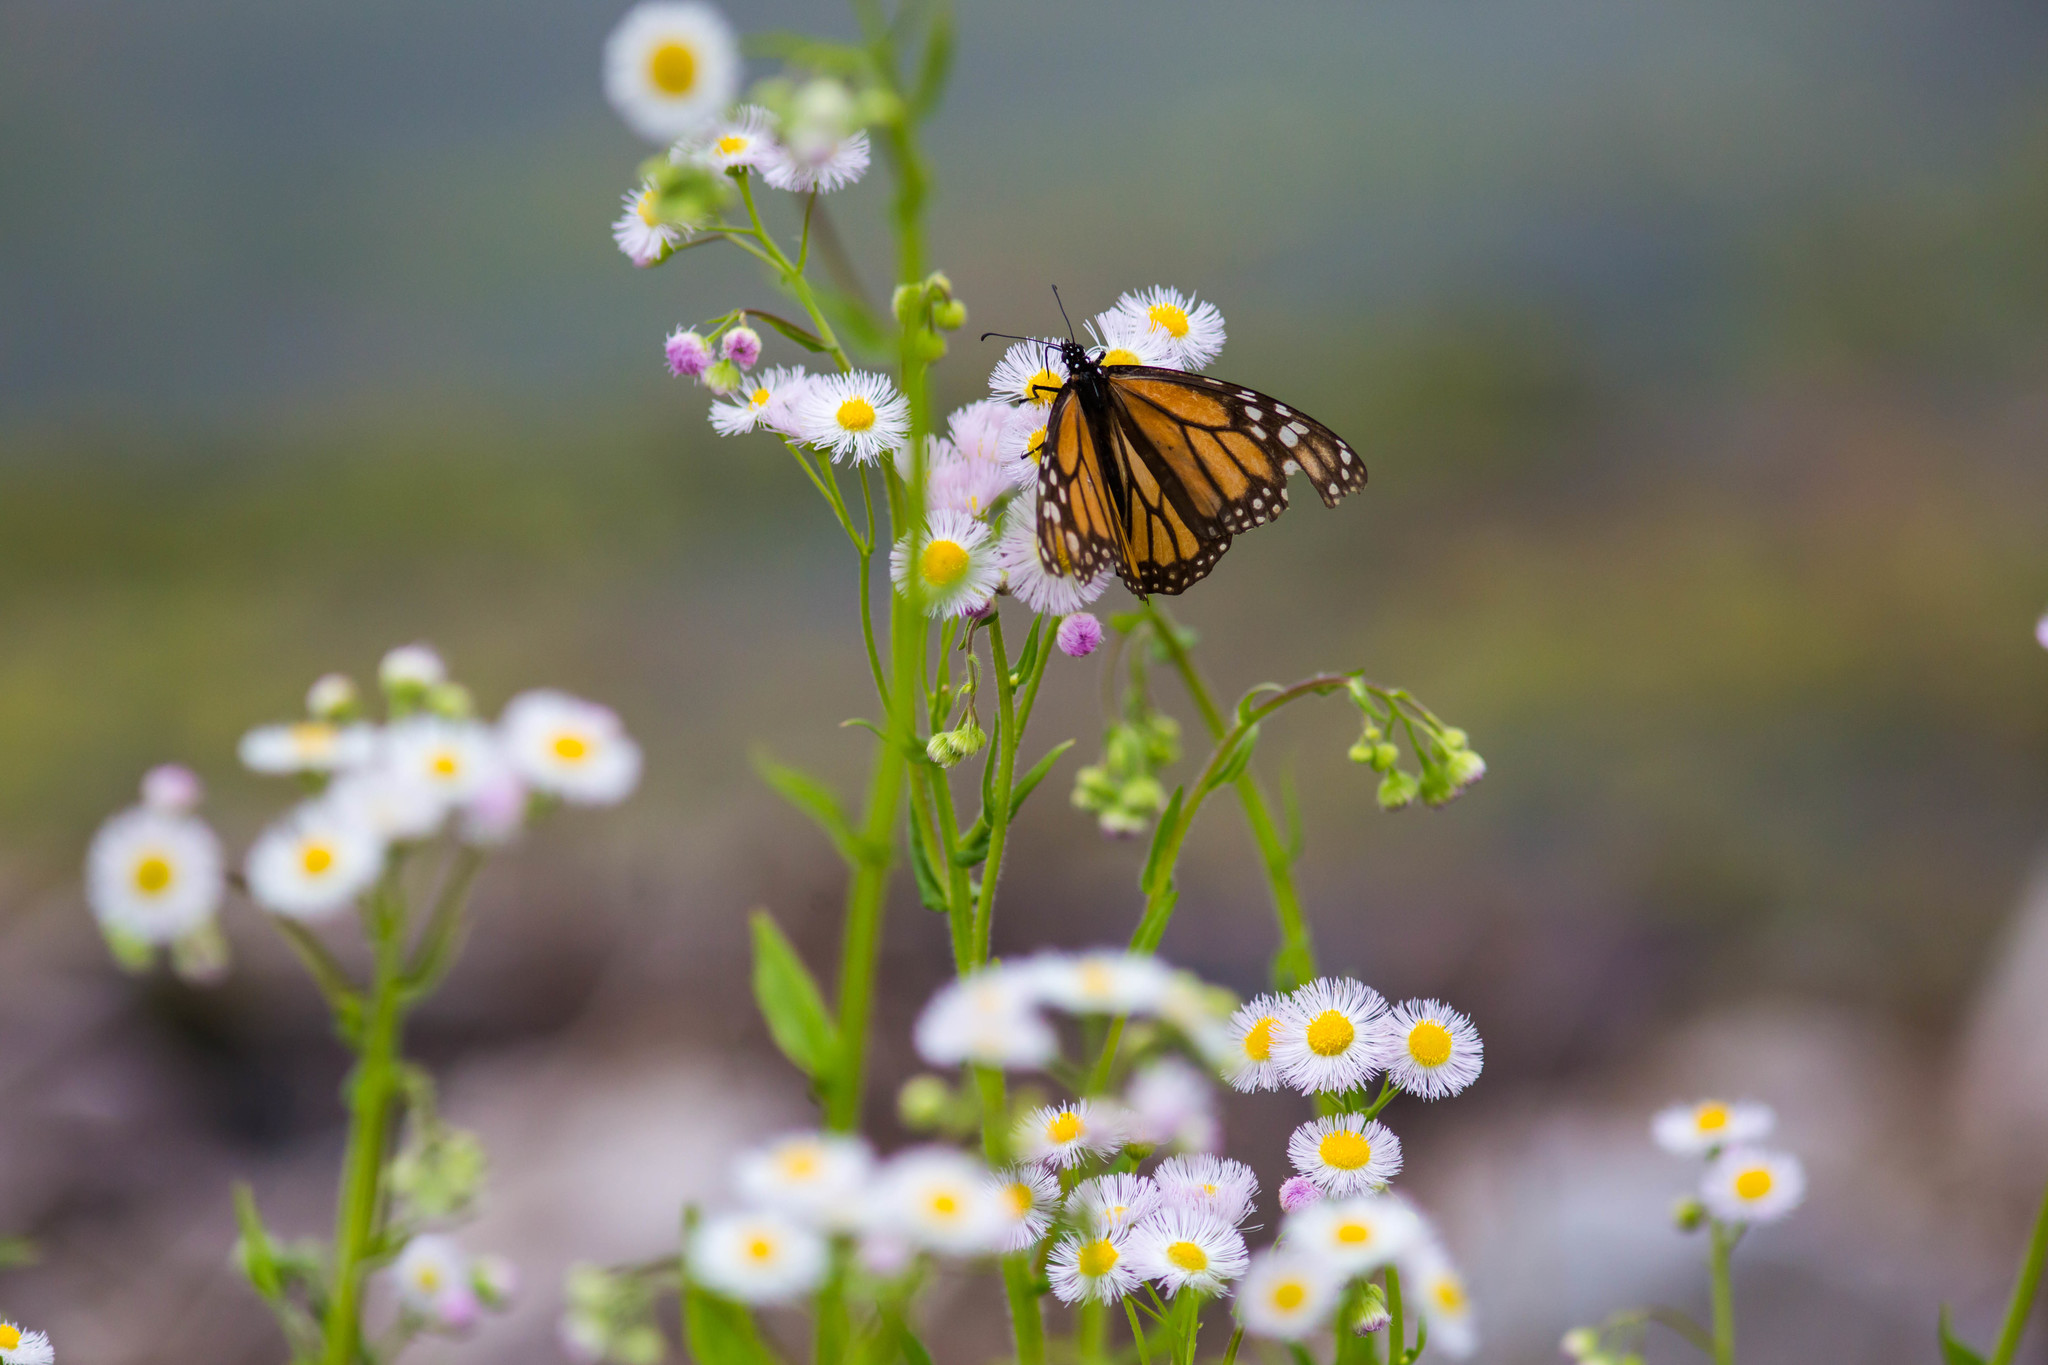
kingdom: Animalia
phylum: Arthropoda
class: Insecta
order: Lepidoptera
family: Nymphalidae
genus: Danaus
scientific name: Danaus plexippus
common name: Monarch
